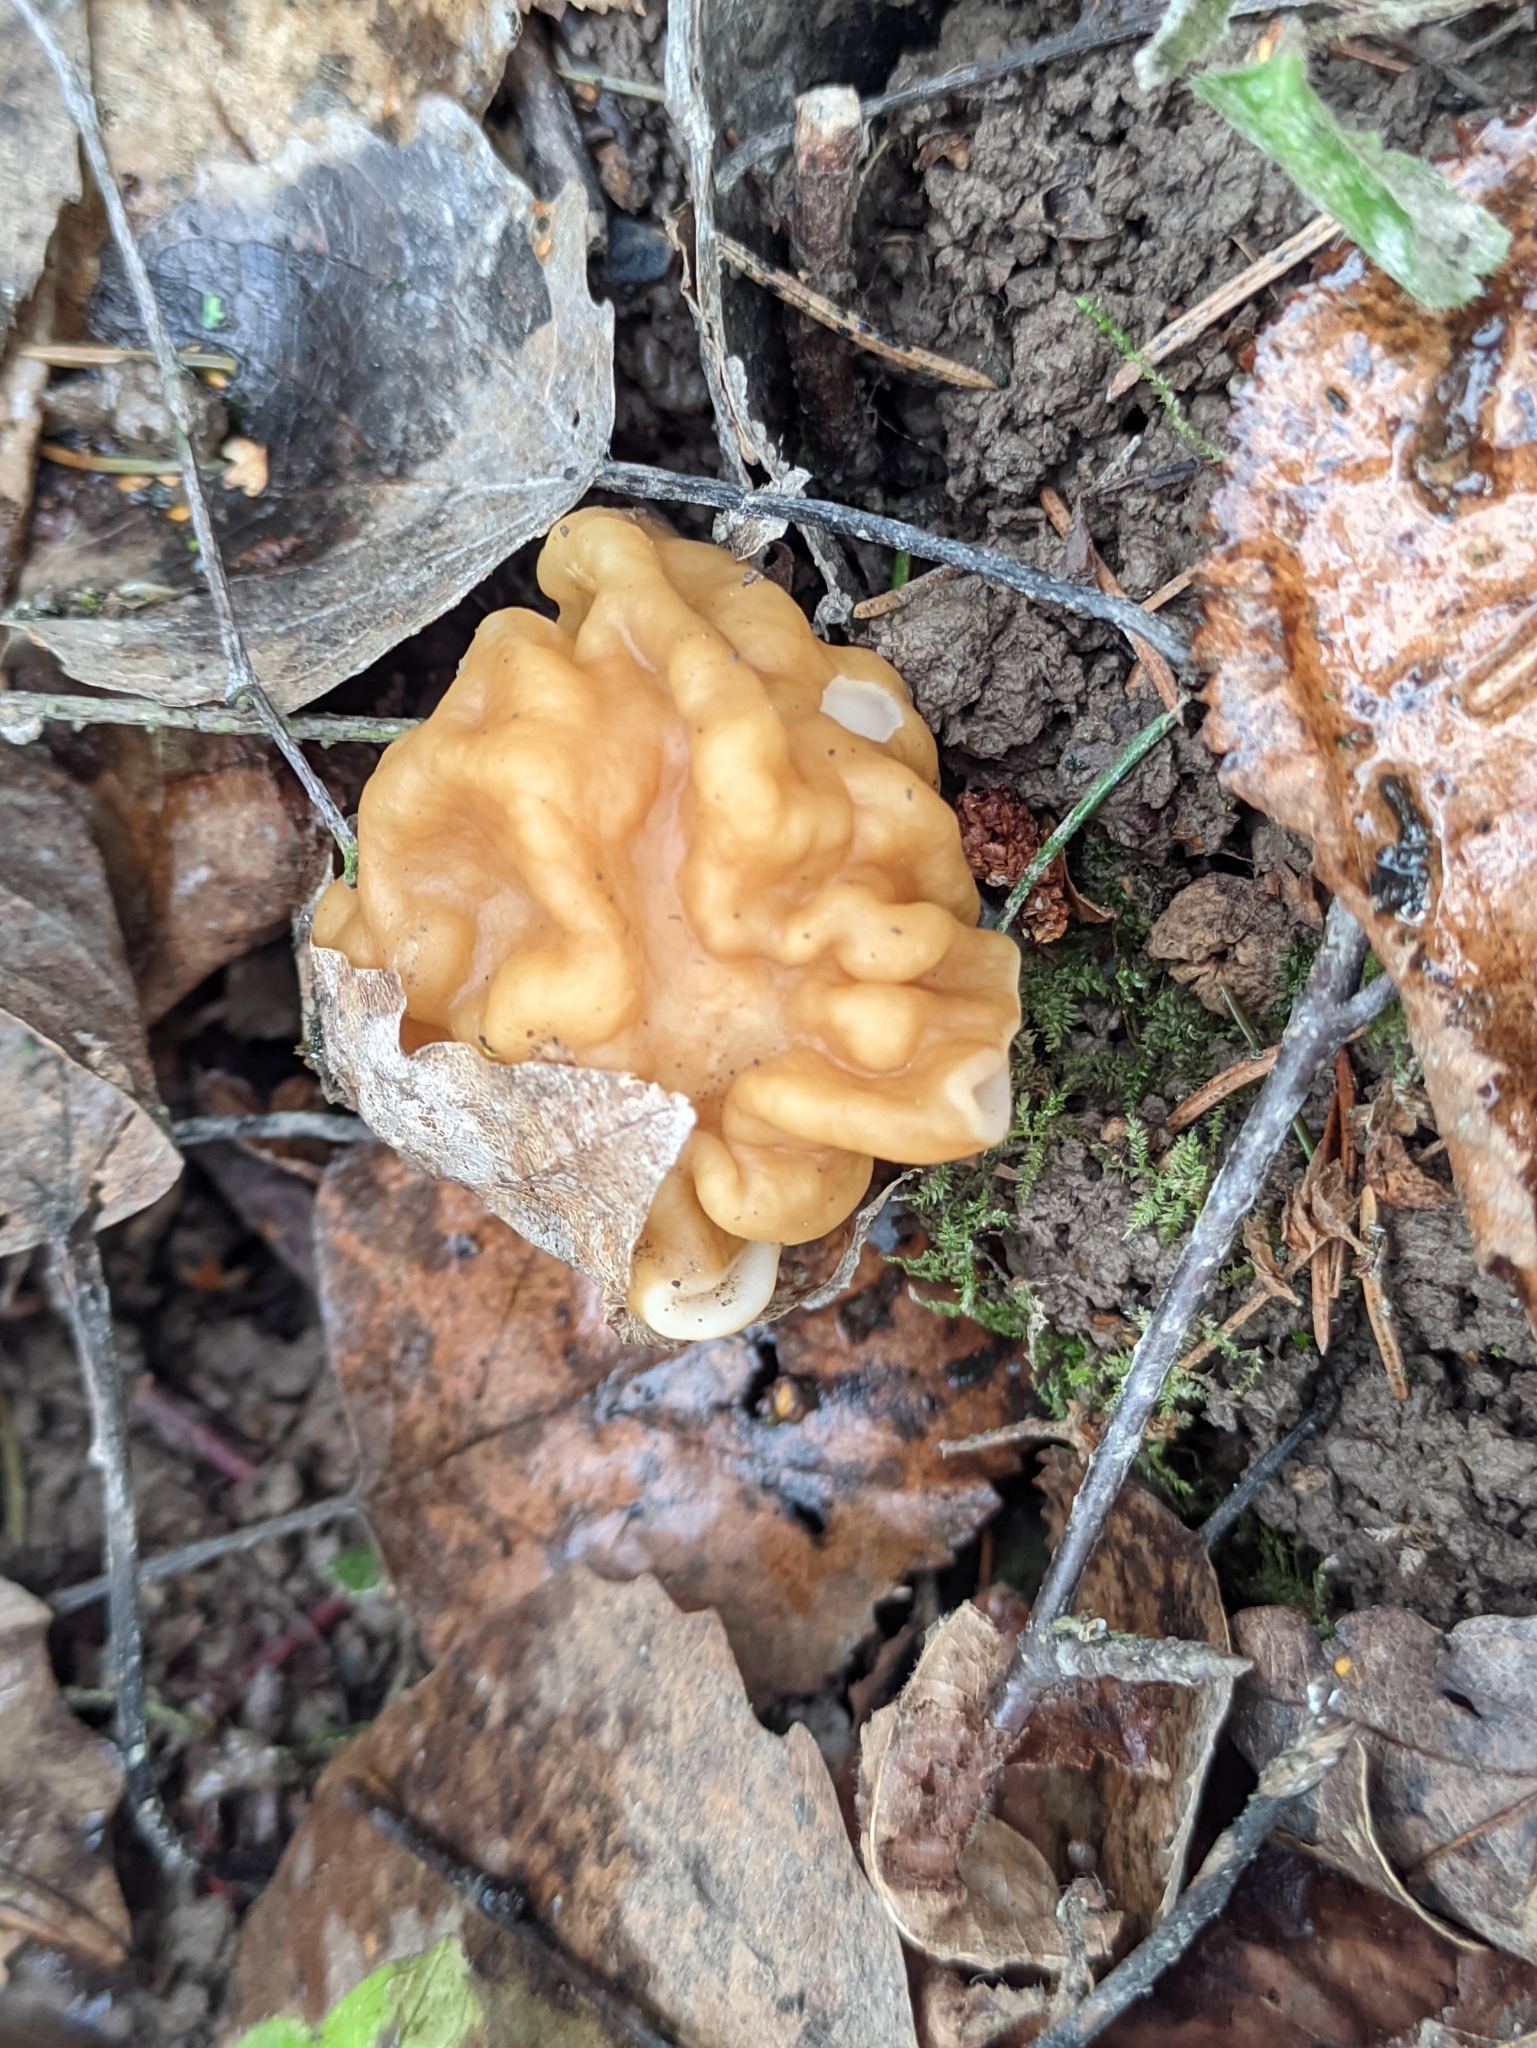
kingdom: Fungi
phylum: Ascomycota
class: Pezizomycetes
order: Pezizales
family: Discinaceae
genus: Gyromitra
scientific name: Gyromitra gigas
